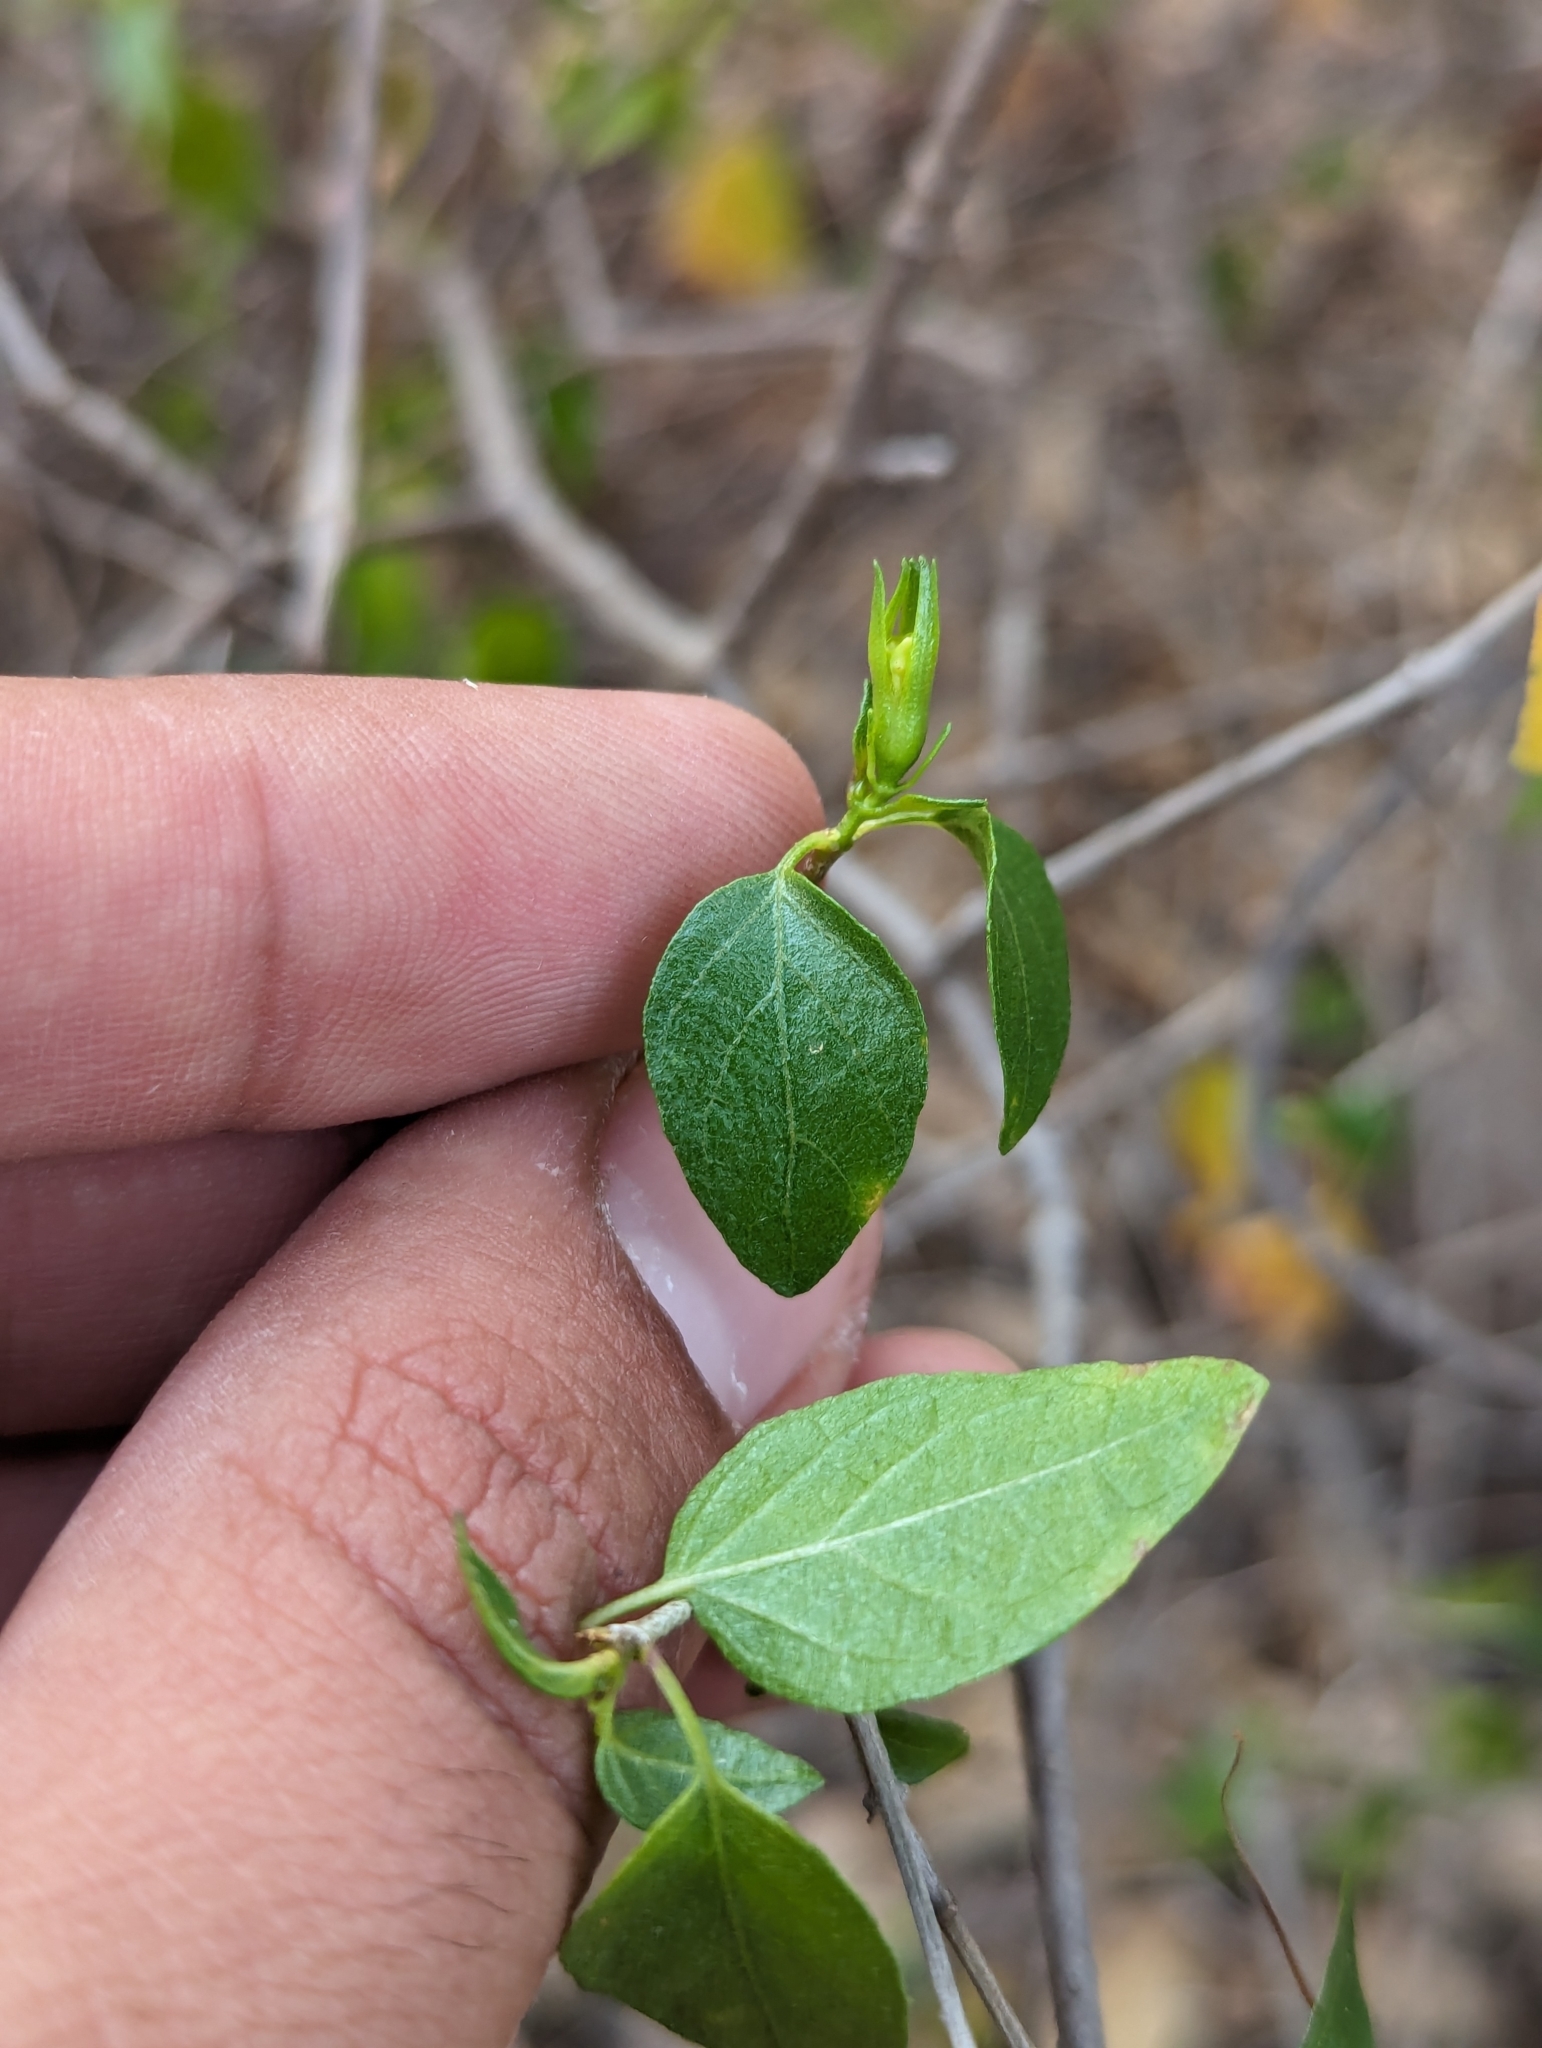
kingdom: Plantae
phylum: Tracheophyta
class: Magnoliopsida
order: Lamiales
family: Acanthaceae
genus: Ruellia
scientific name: Ruellia californica
